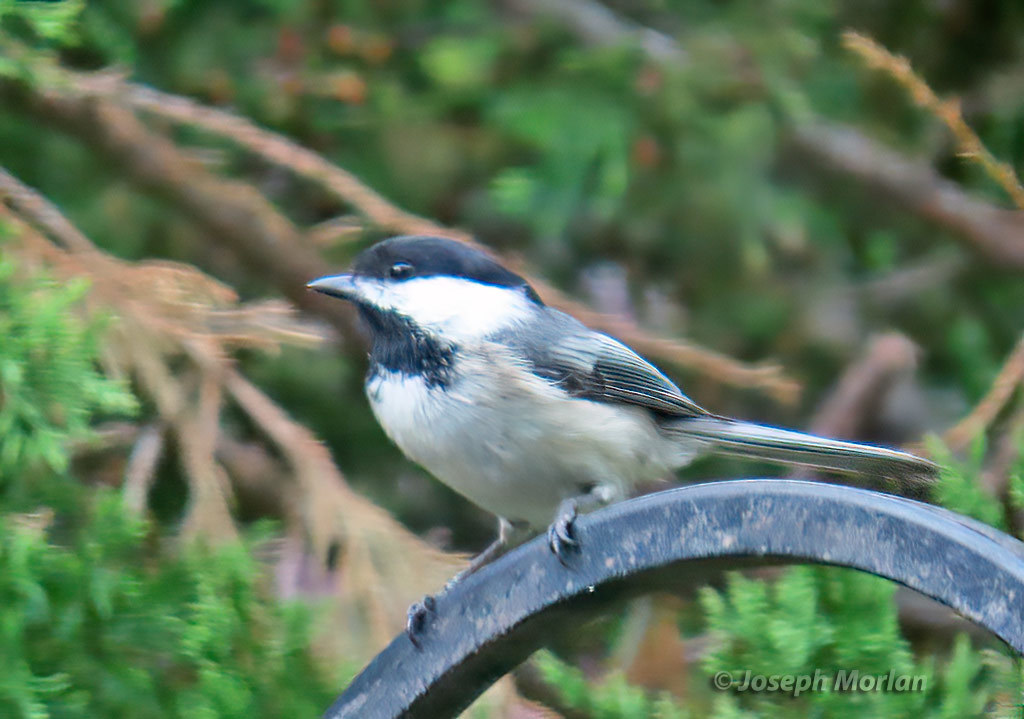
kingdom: Animalia
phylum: Chordata
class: Aves
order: Passeriformes
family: Paridae
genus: Poecile
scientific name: Poecile atricapillus
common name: Black-capped chickadee
